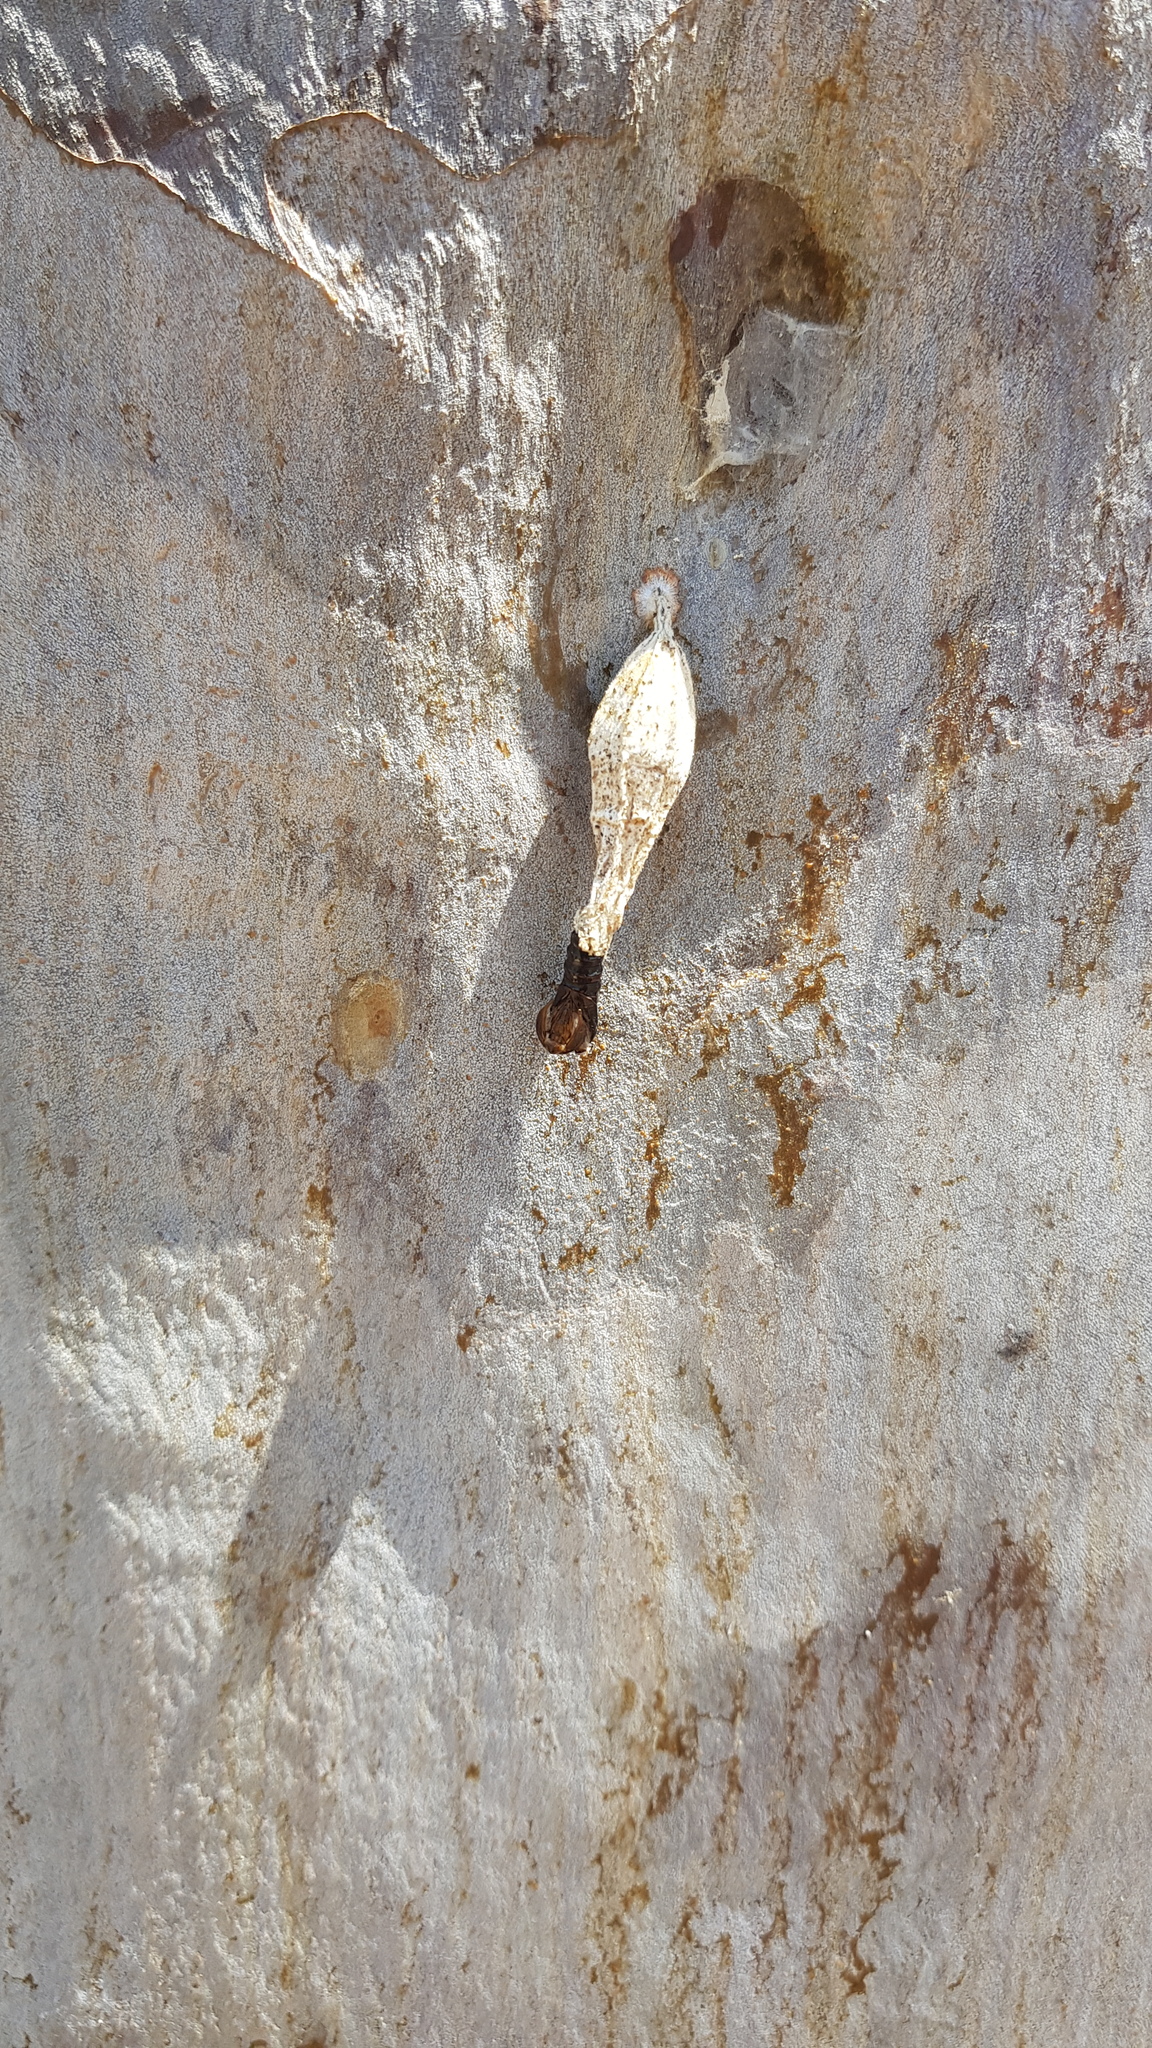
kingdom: Animalia
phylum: Arthropoda
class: Insecta
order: Lepidoptera
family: Psychidae
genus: Hyalarcta
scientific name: Hyalarcta nigrescens
